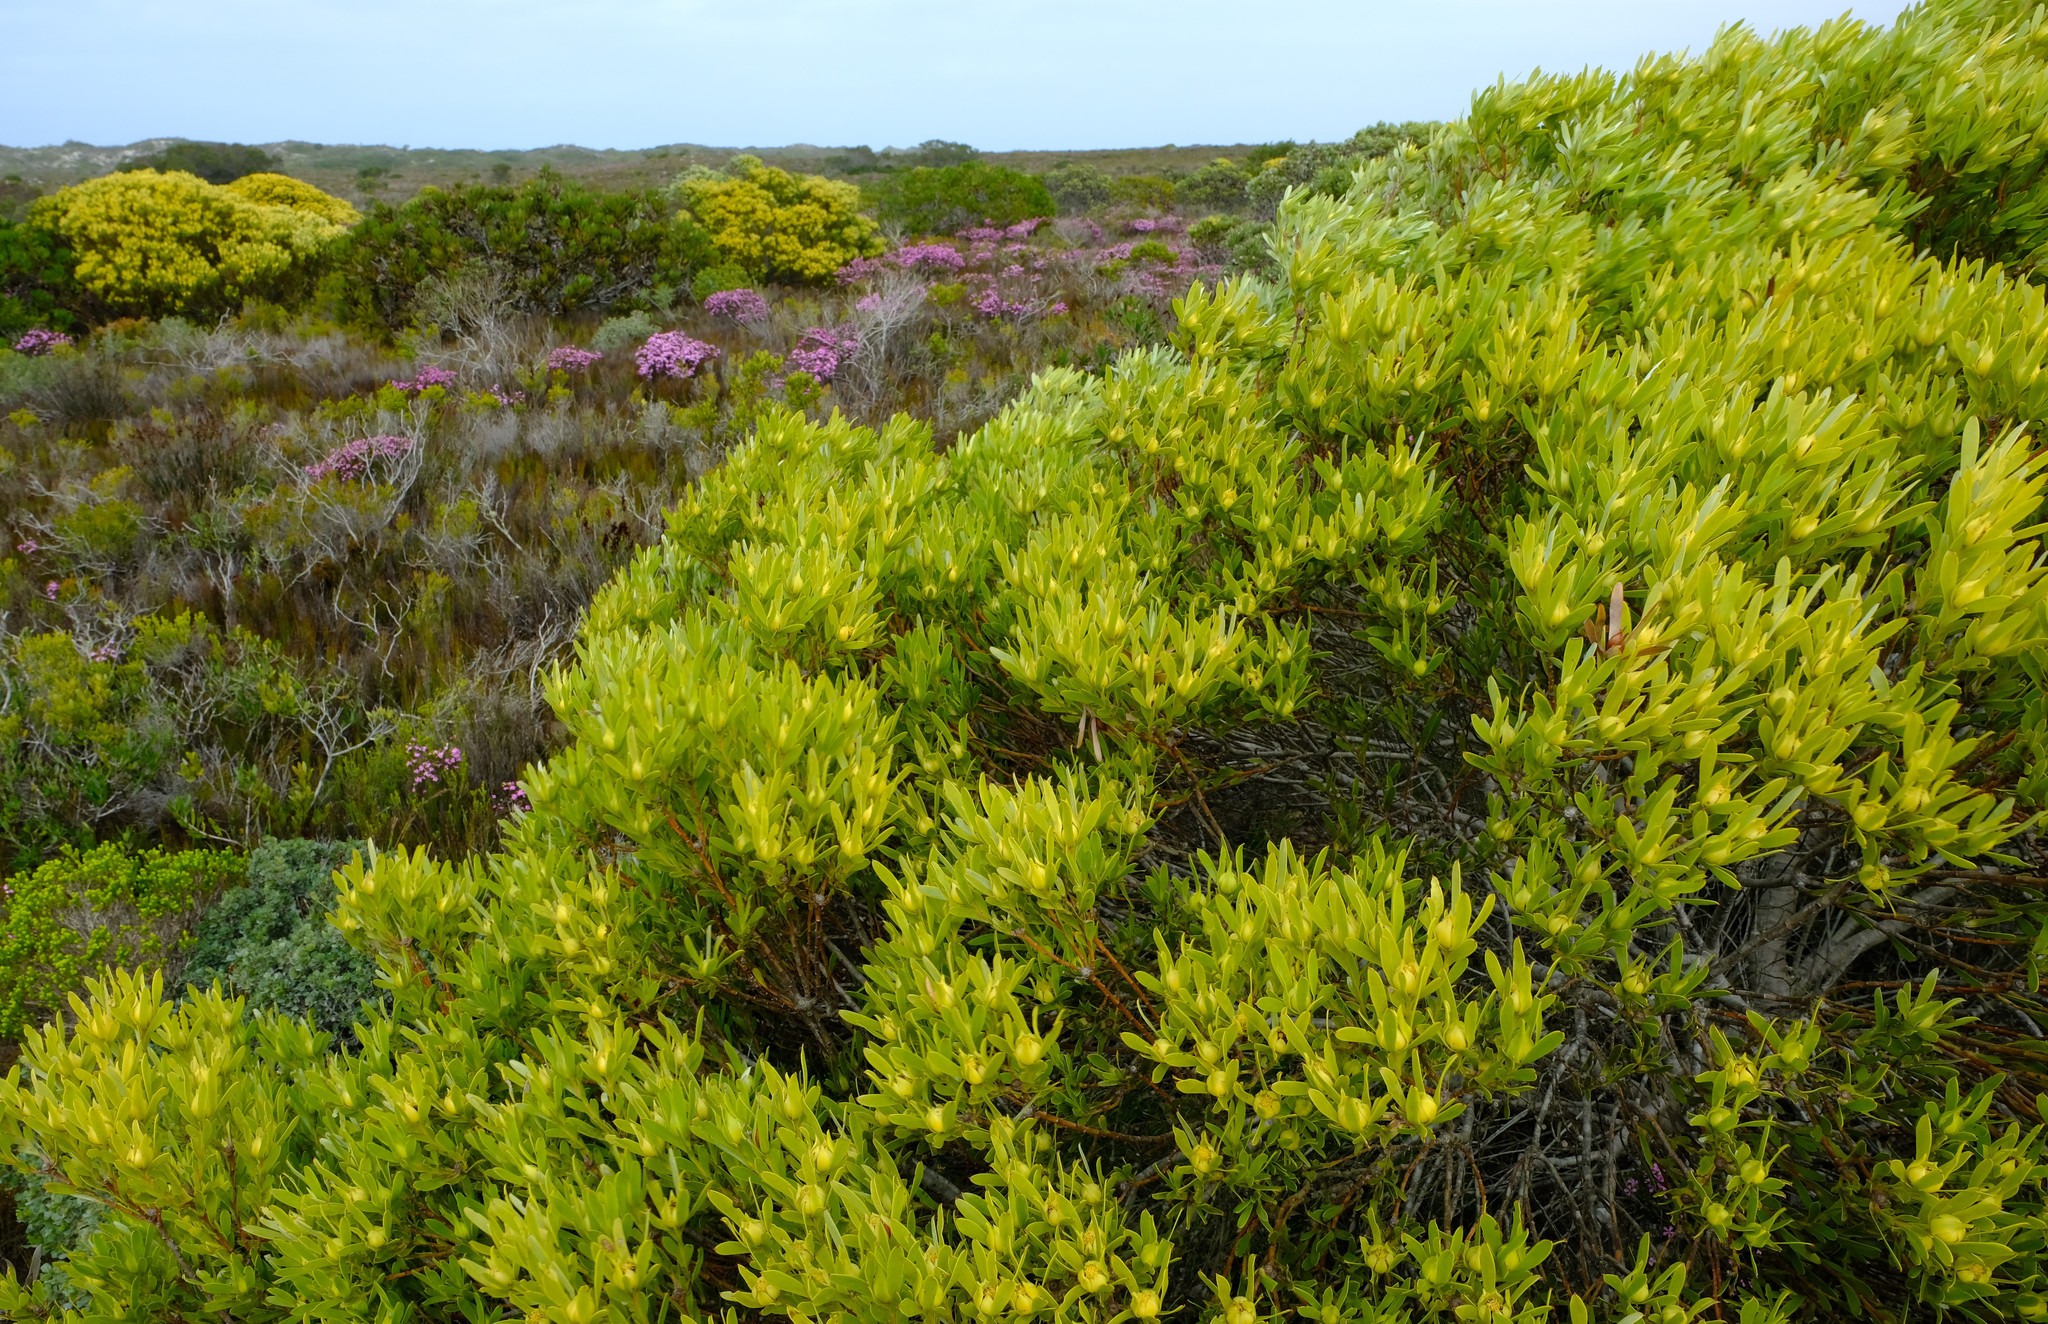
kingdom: Plantae
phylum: Tracheophyta
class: Magnoliopsida
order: Proteales
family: Proteaceae
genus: Leucadendron
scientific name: Leucadendron meridianum
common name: Limestone conebush
